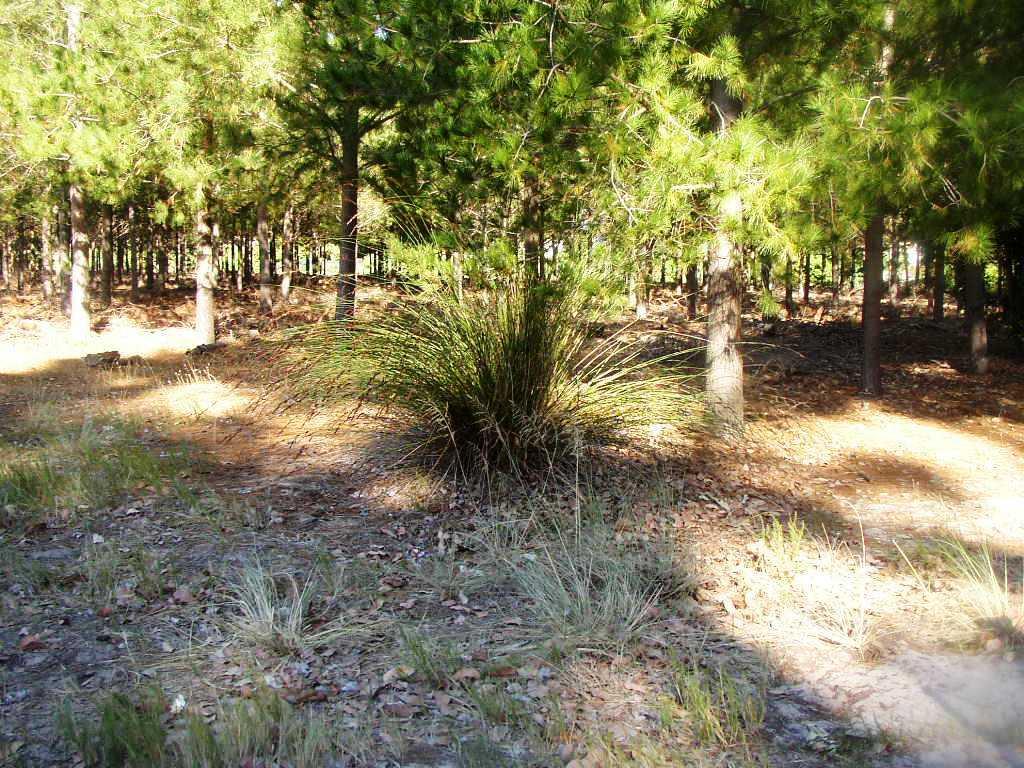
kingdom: Plantae
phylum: Tracheophyta
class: Liliopsida
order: Poales
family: Restionaceae
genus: Thamnochortus
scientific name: Thamnochortus insignis
